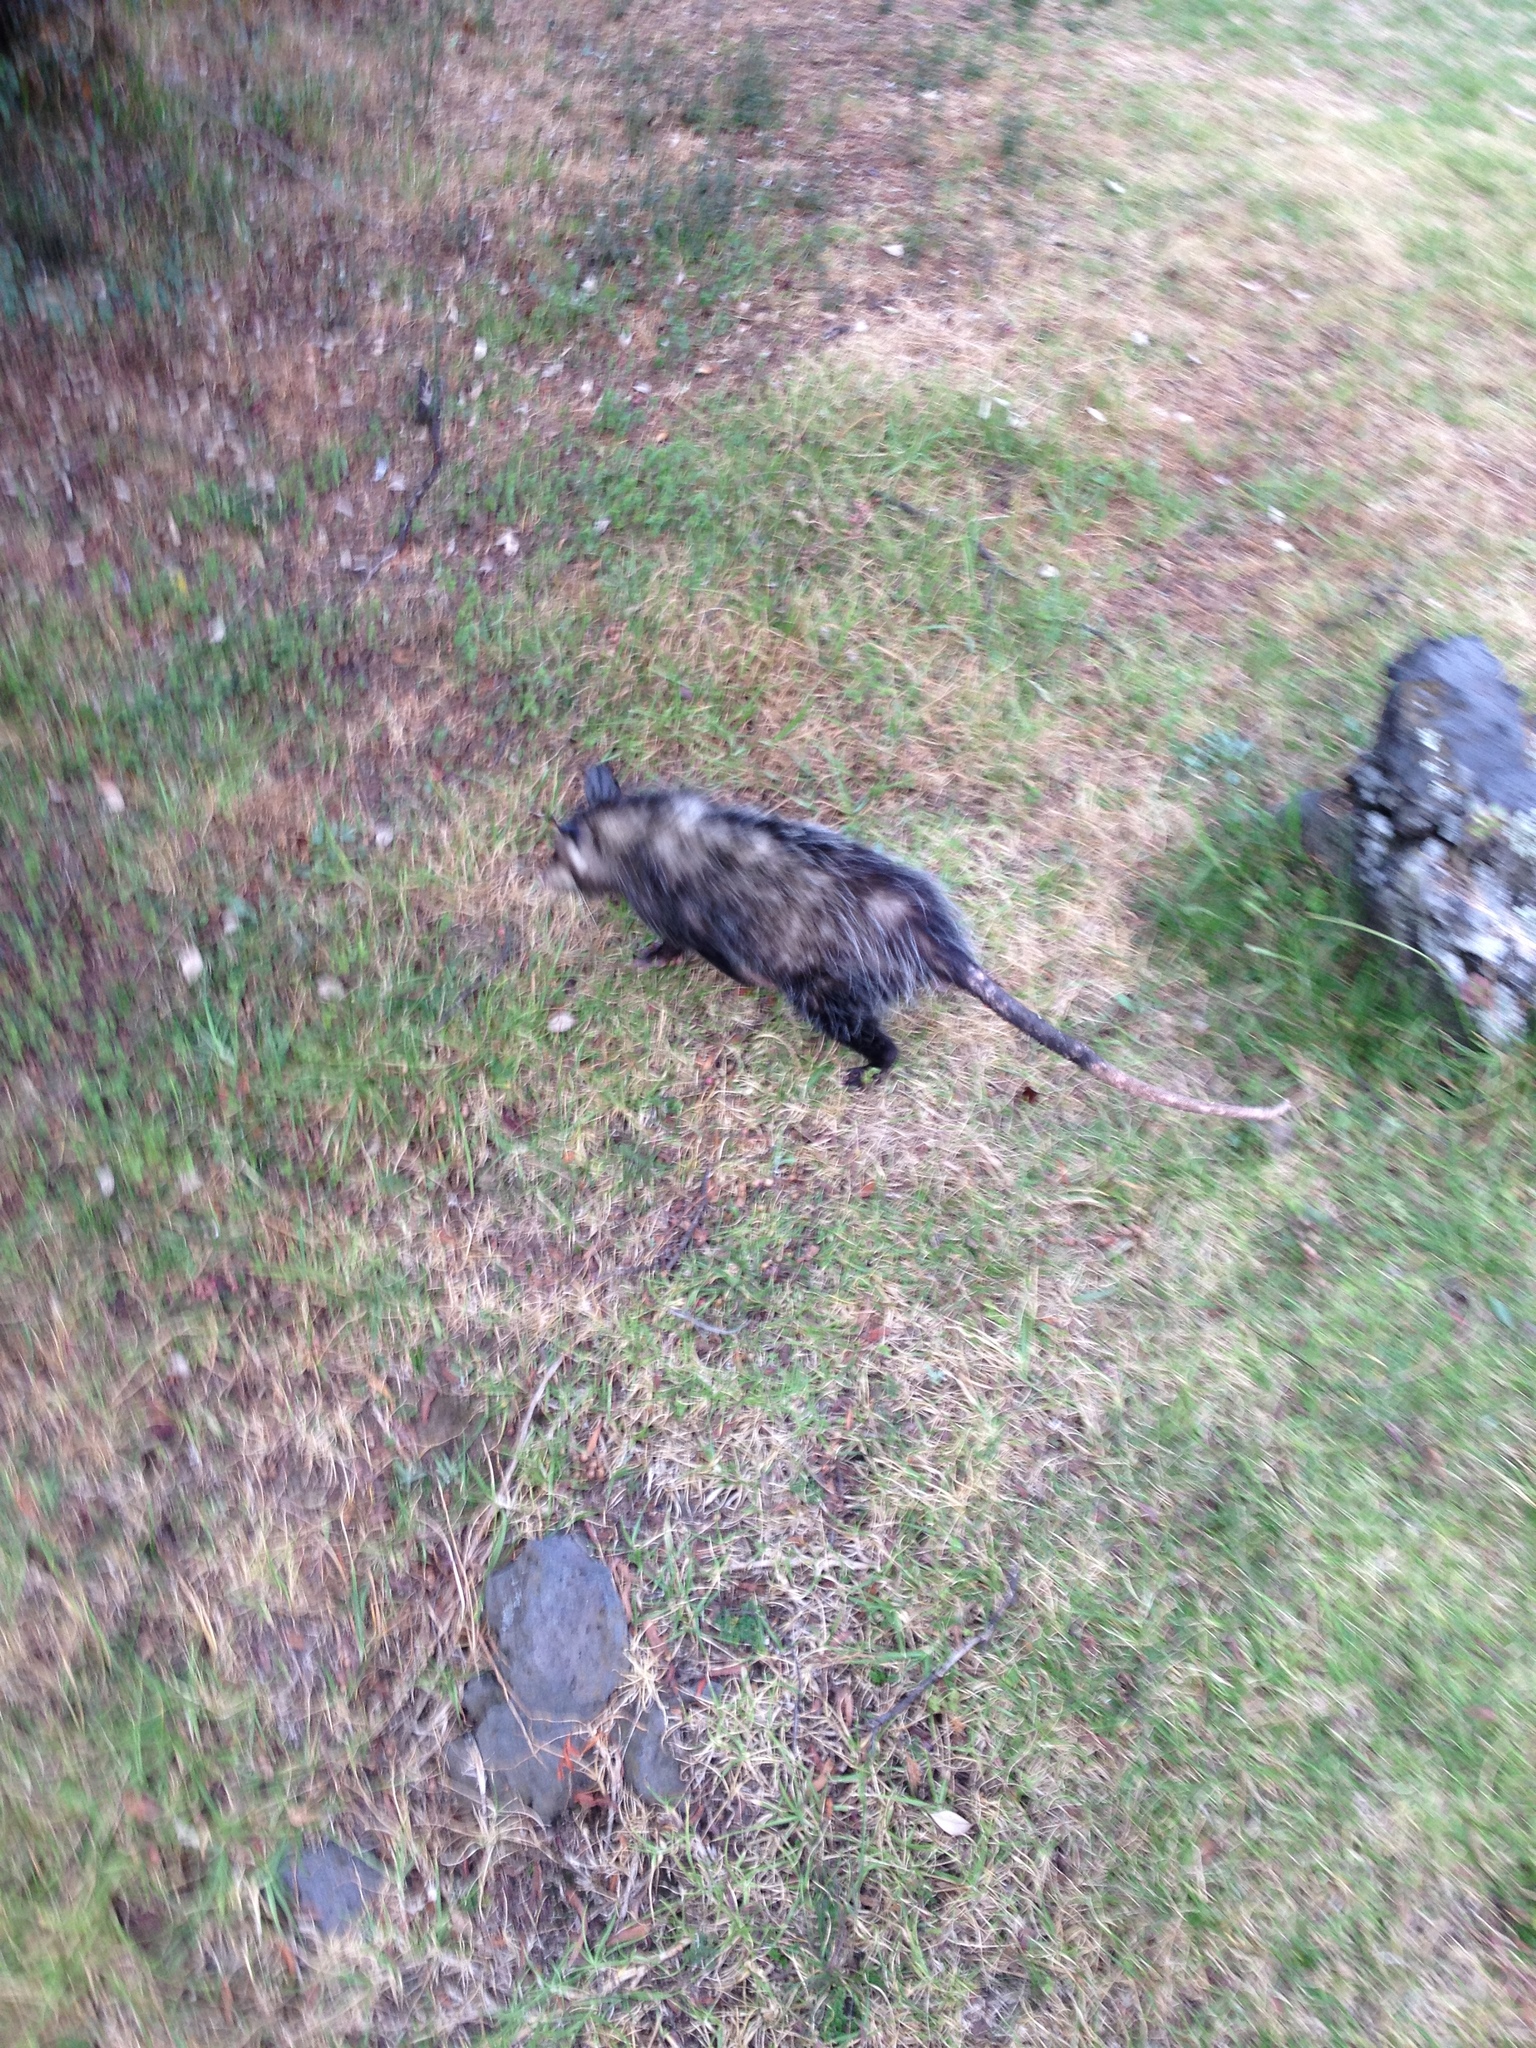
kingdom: Animalia
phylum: Chordata
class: Mammalia
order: Didelphimorphia
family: Didelphidae
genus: Didelphis
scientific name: Didelphis virginiana
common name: Virginia opossum
